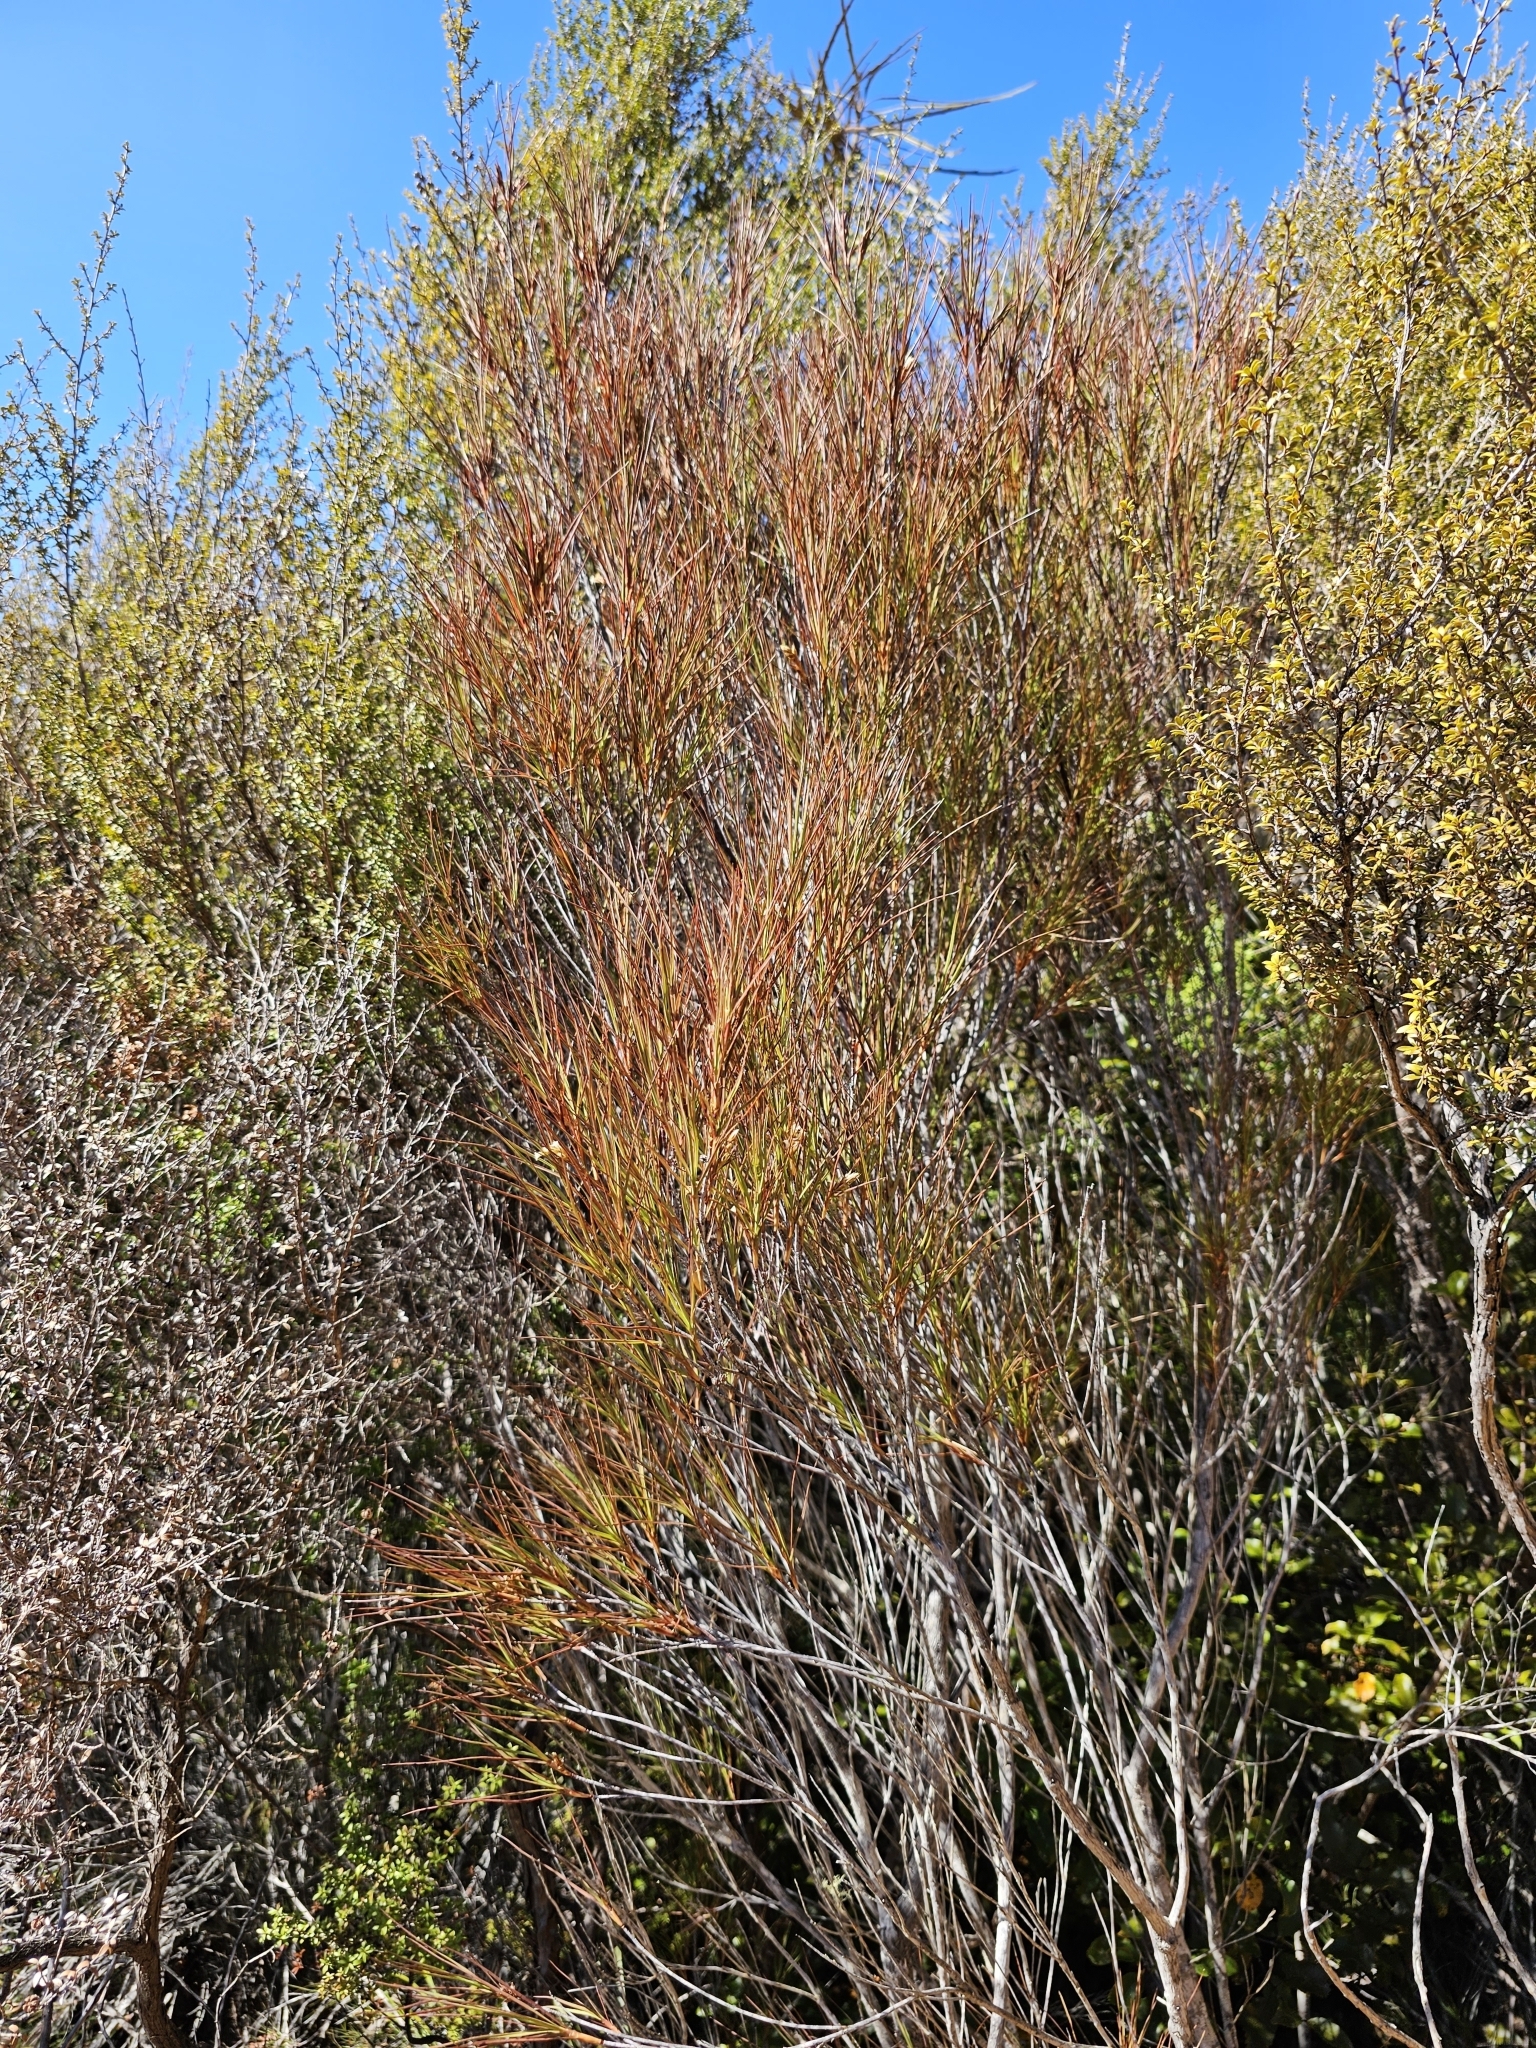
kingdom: Plantae
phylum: Tracheophyta
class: Magnoliopsida
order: Ericales
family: Ericaceae
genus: Dracophyllum
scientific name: Dracophyllum filifolium
